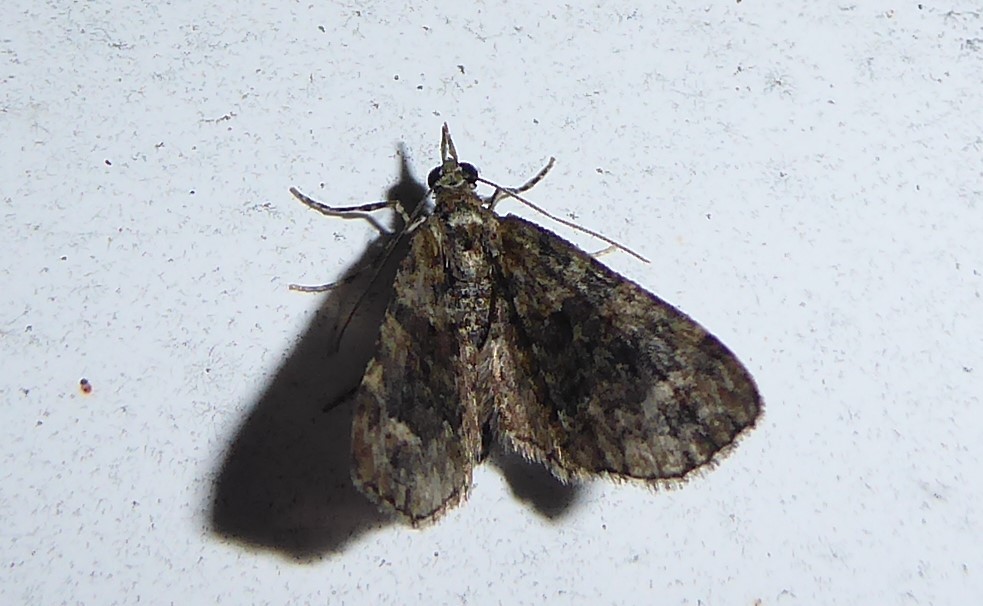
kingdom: Animalia
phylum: Arthropoda
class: Insecta
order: Lepidoptera
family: Geometridae
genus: Idaea
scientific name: Idaea mutanda
